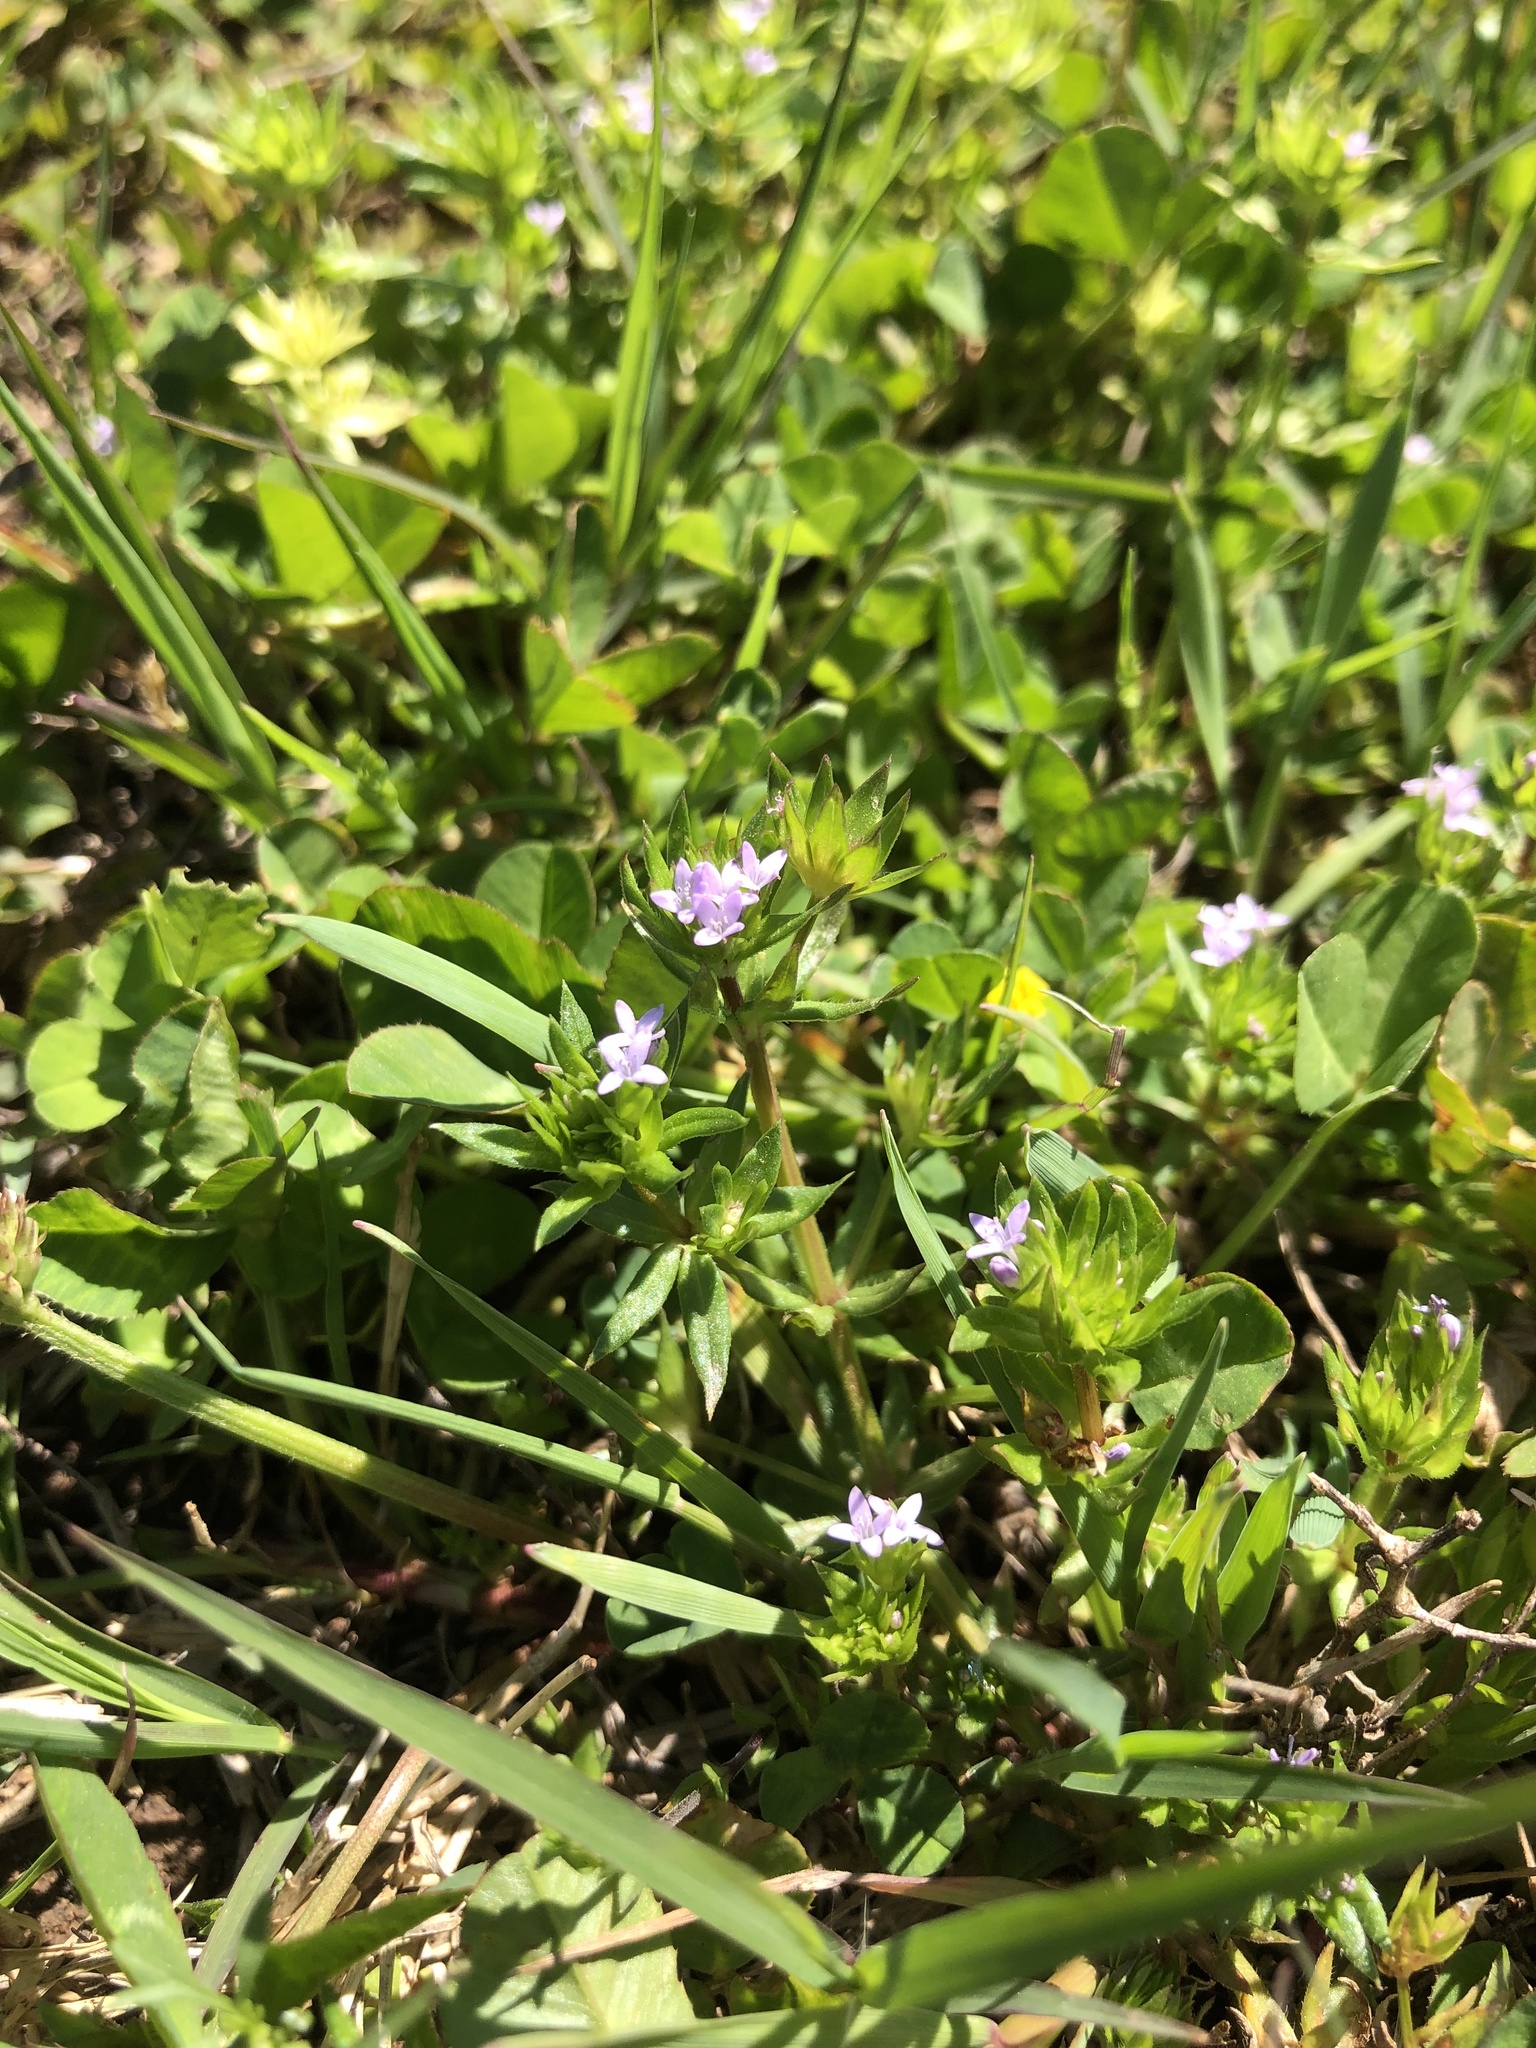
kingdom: Plantae
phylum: Tracheophyta
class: Magnoliopsida
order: Gentianales
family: Rubiaceae
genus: Sherardia
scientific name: Sherardia arvensis
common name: Field madder
